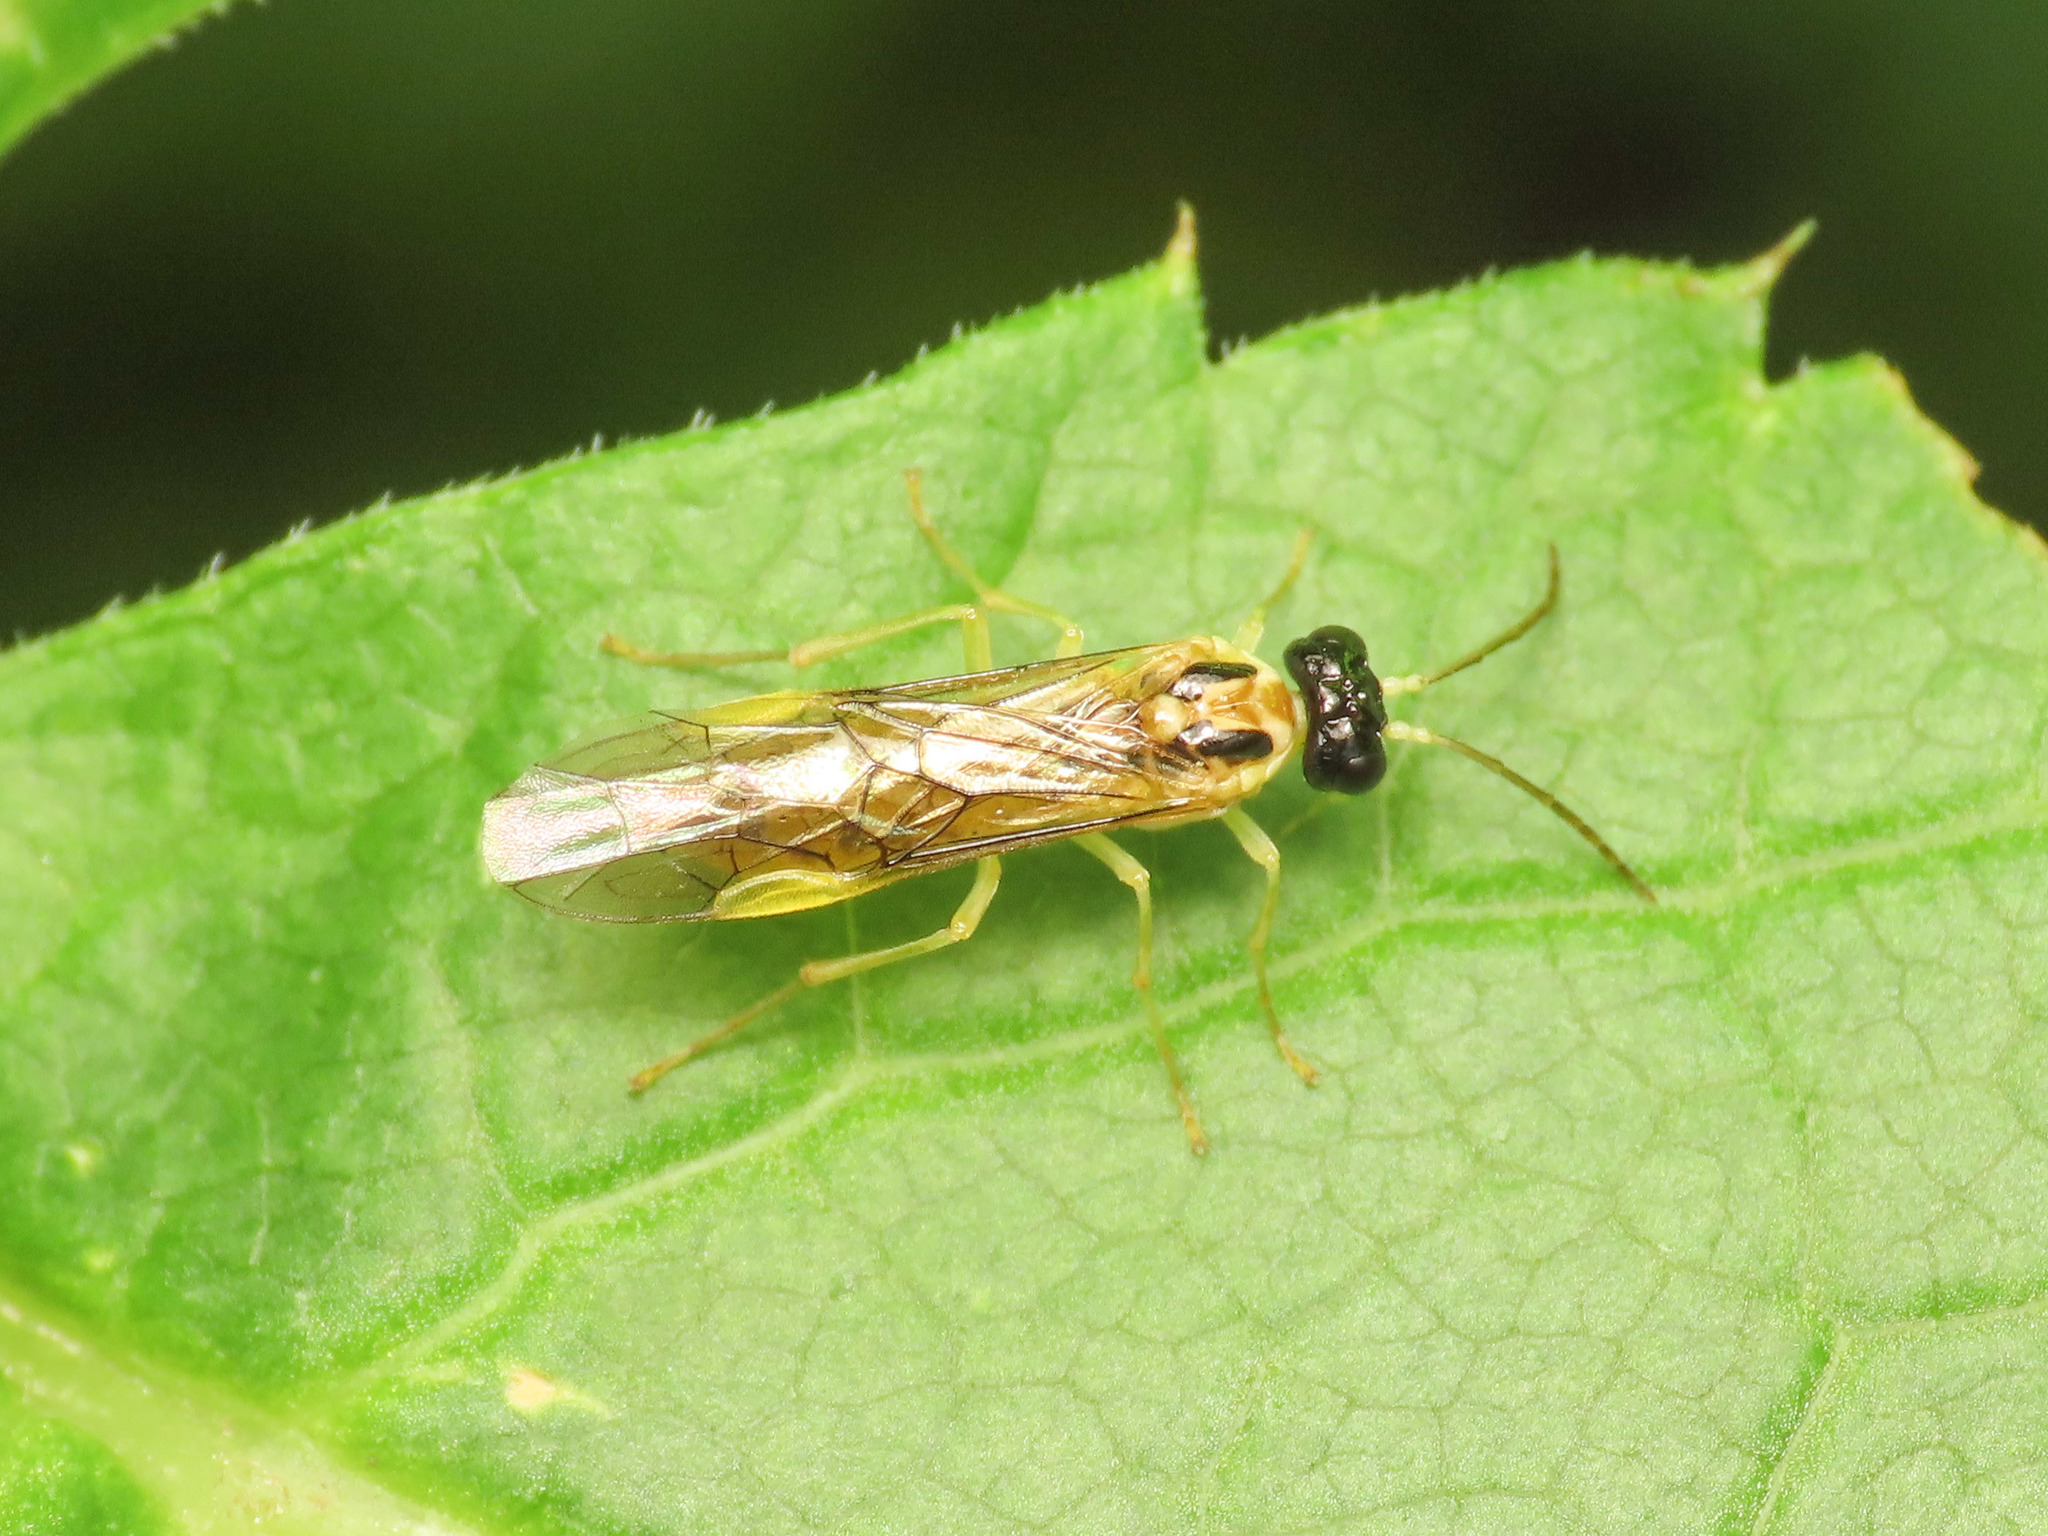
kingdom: Animalia
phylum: Arthropoda
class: Insecta
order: Hymenoptera
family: Tenthredinidae
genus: Stromboceros
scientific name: Stromboceros delicatulus
